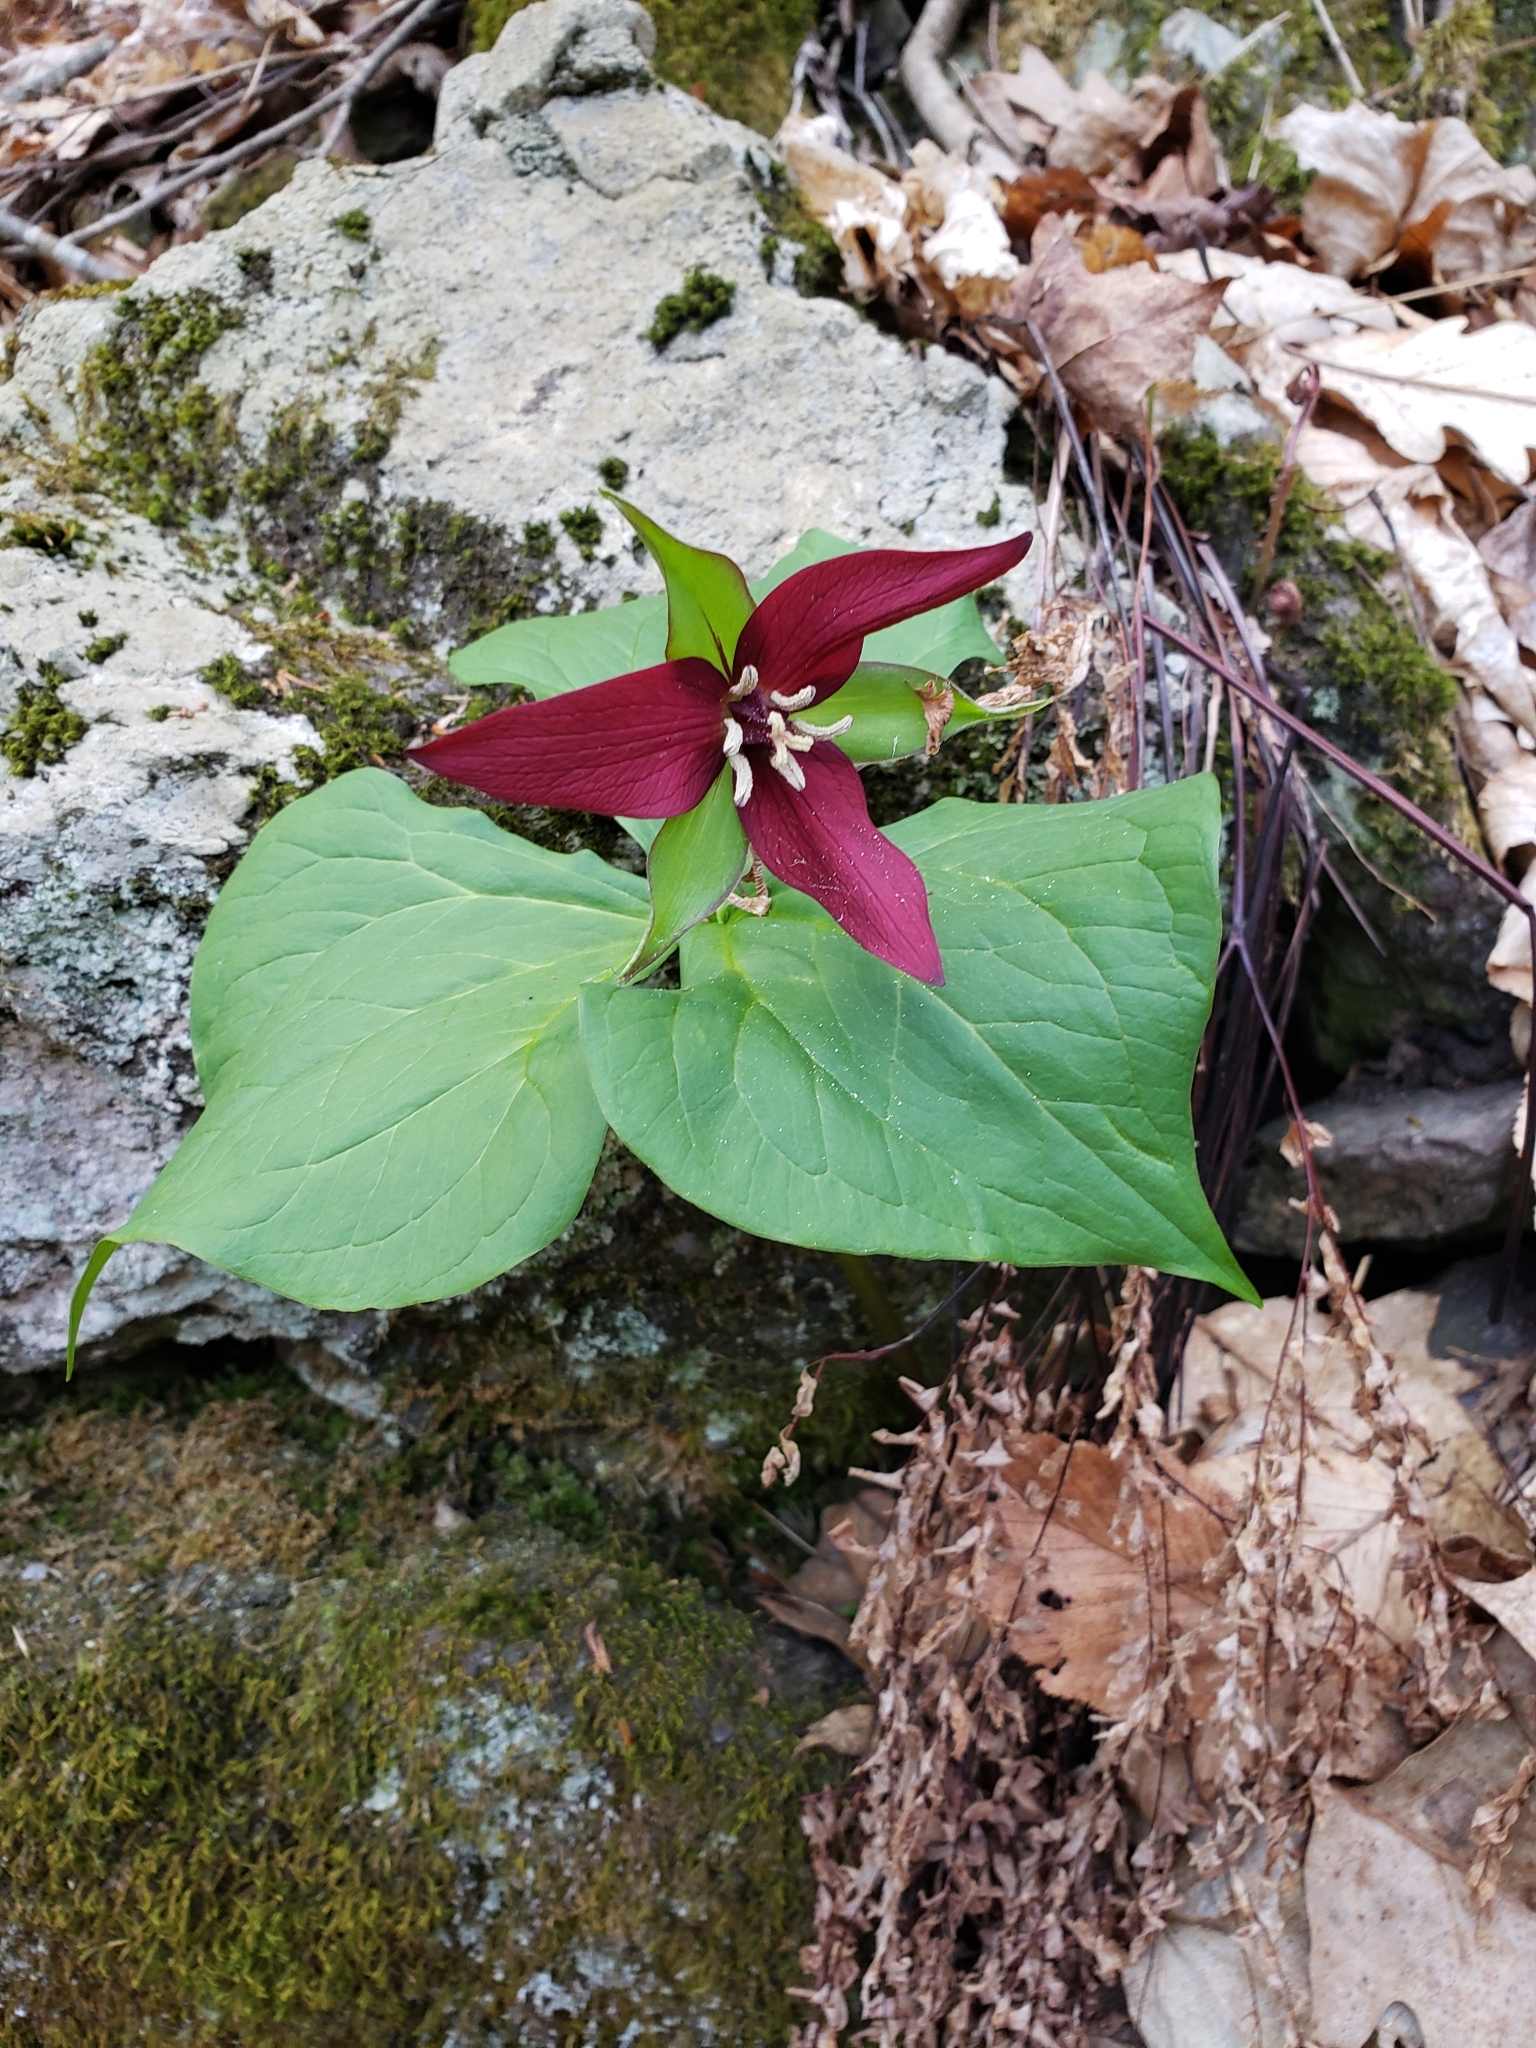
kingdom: Plantae
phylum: Tracheophyta
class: Liliopsida
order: Liliales
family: Melanthiaceae
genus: Trillium
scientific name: Trillium erectum
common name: Purple trillium
